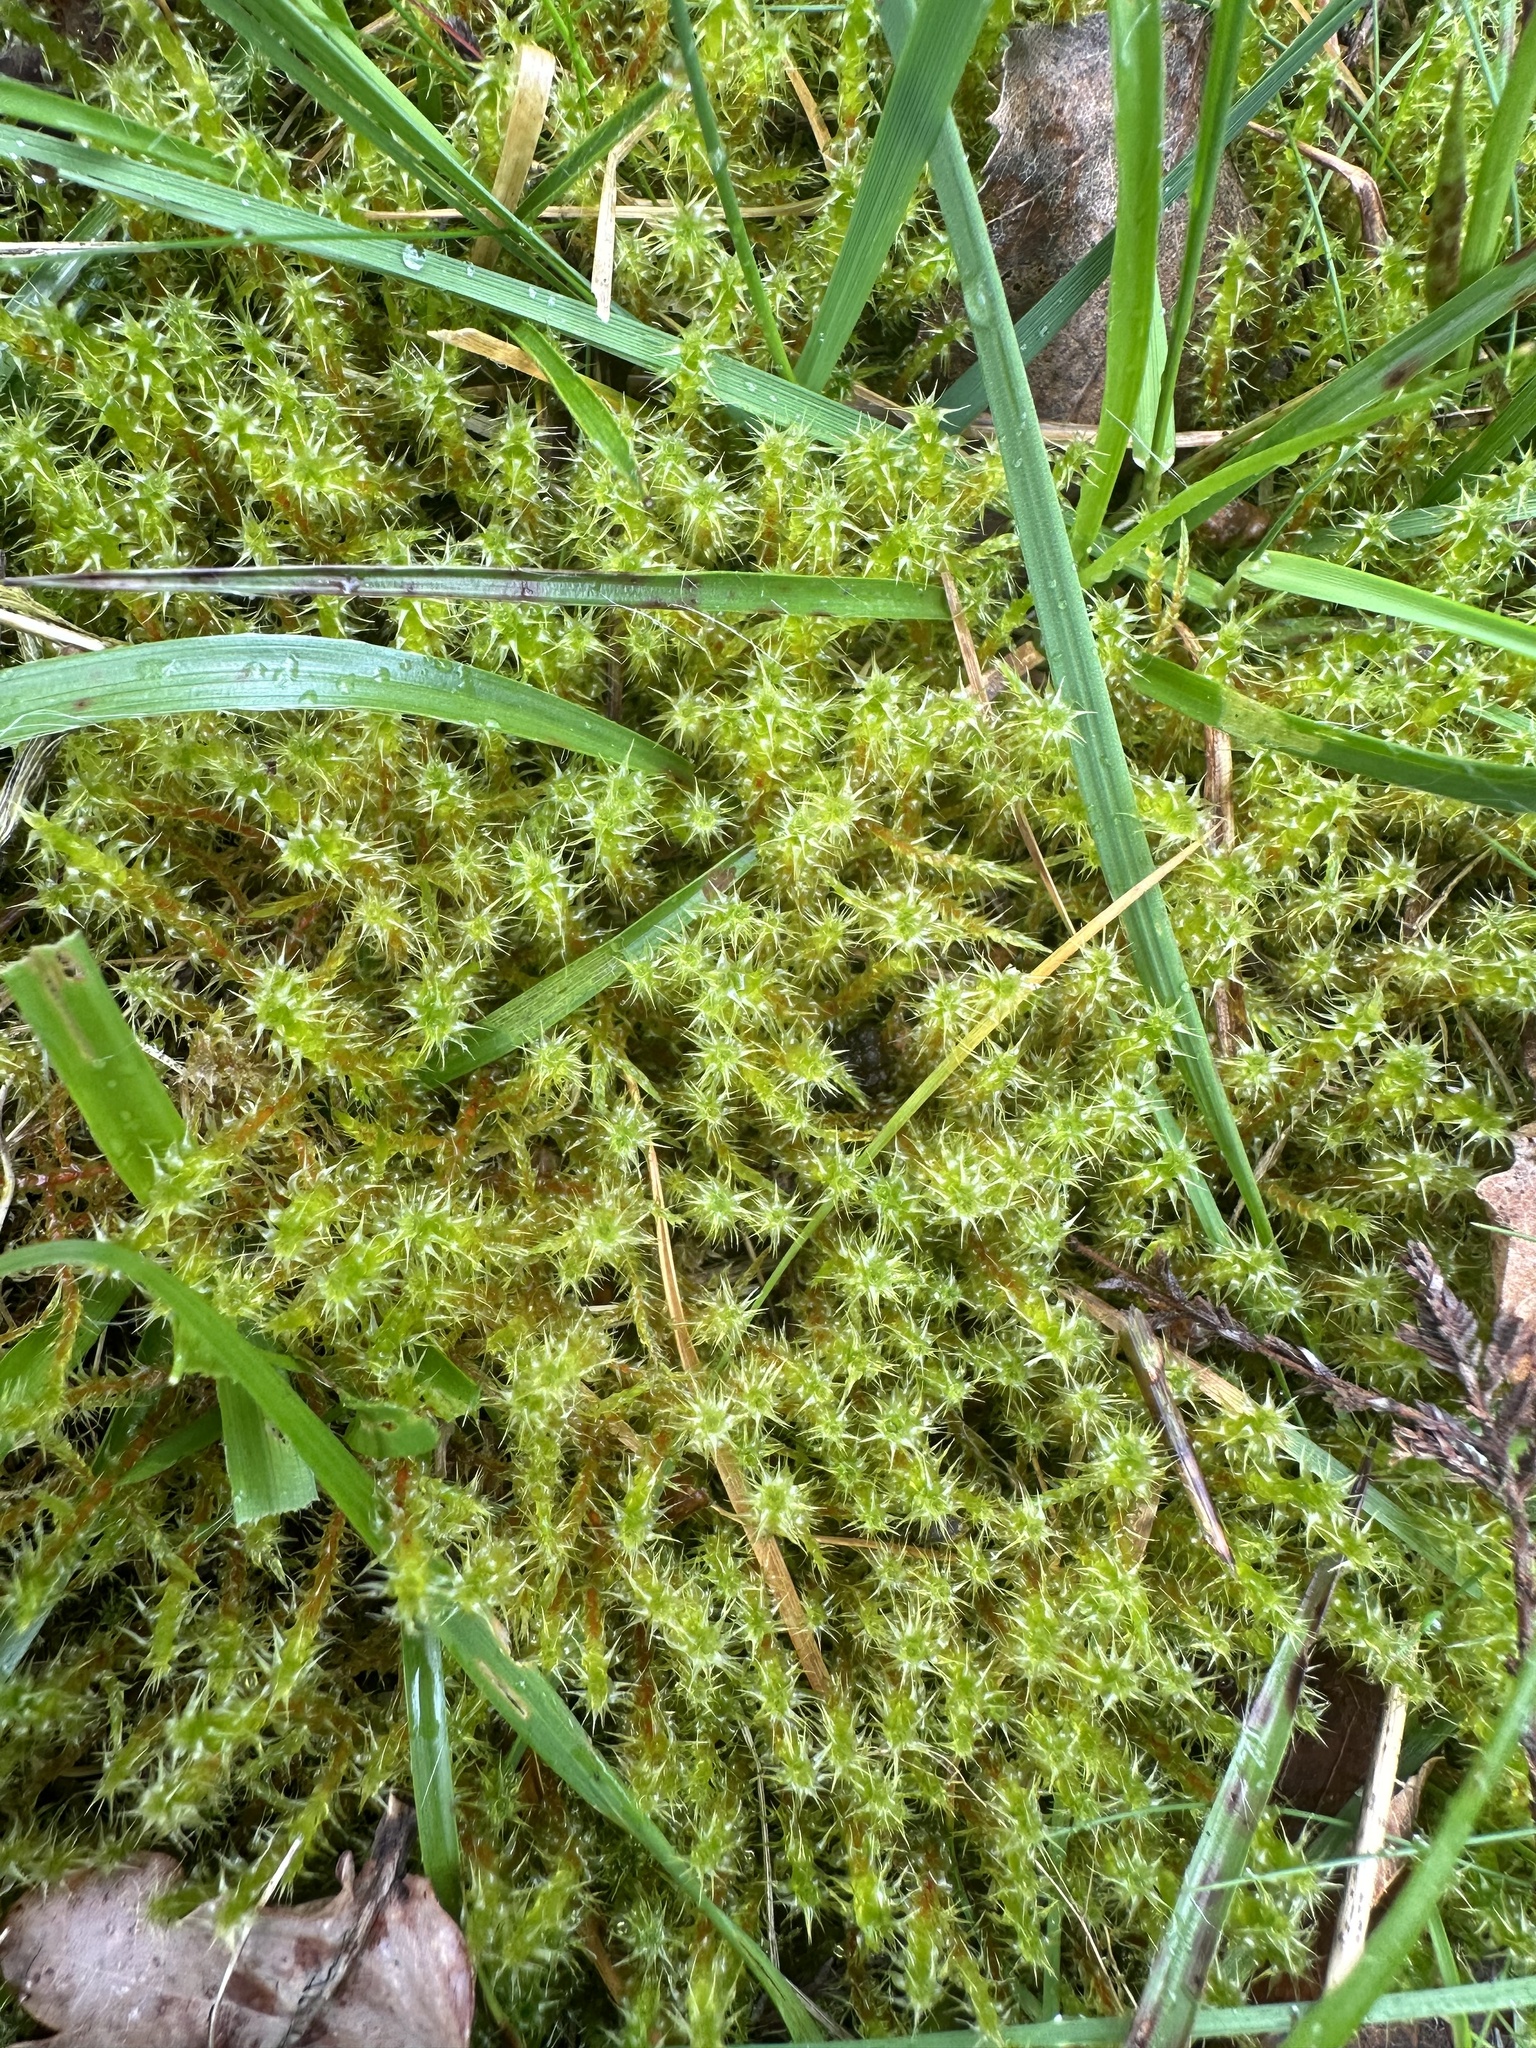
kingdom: Plantae
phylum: Bryophyta
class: Bryopsida
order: Hypnales
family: Hylocomiaceae
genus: Rhytidiadelphus
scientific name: Rhytidiadelphus squarrosus
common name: Springy turf-moss
